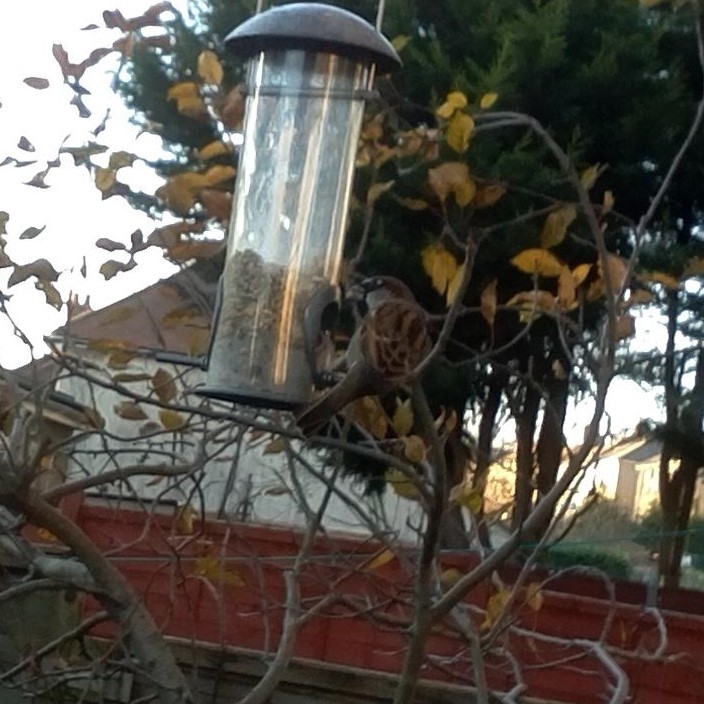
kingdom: Animalia
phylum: Chordata
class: Aves
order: Passeriformes
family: Passeridae
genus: Passer
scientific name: Passer domesticus
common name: House sparrow
